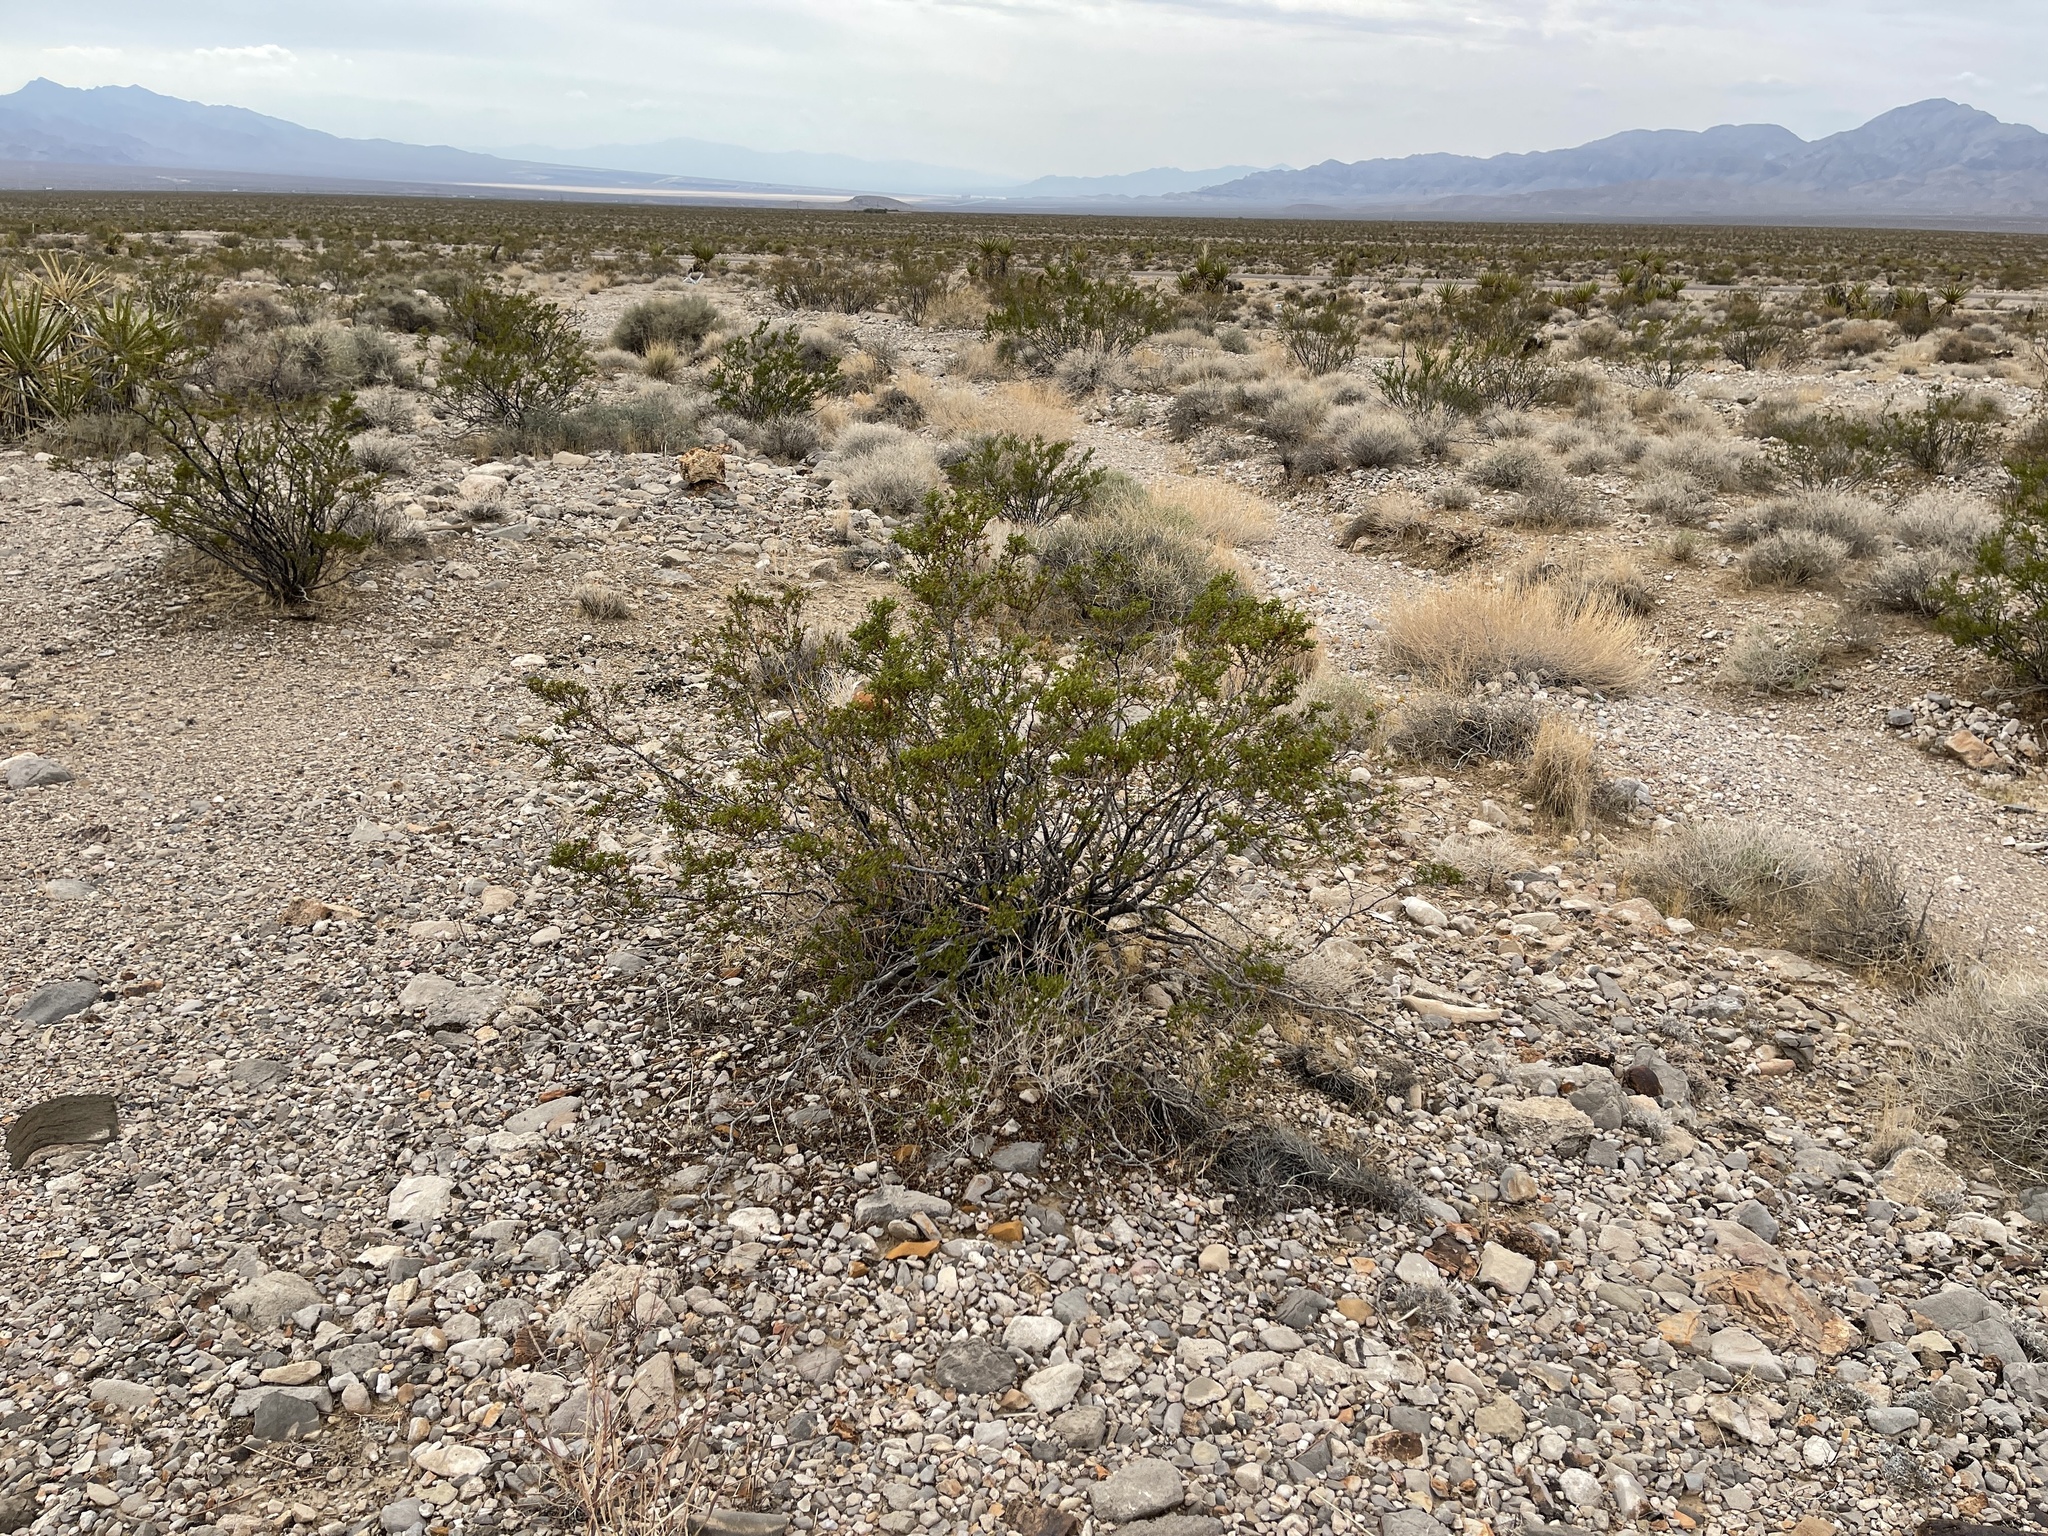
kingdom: Plantae
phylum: Tracheophyta
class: Magnoliopsida
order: Zygophyllales
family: Zygophyllaceae
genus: Larrea
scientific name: Larrea tridentata
